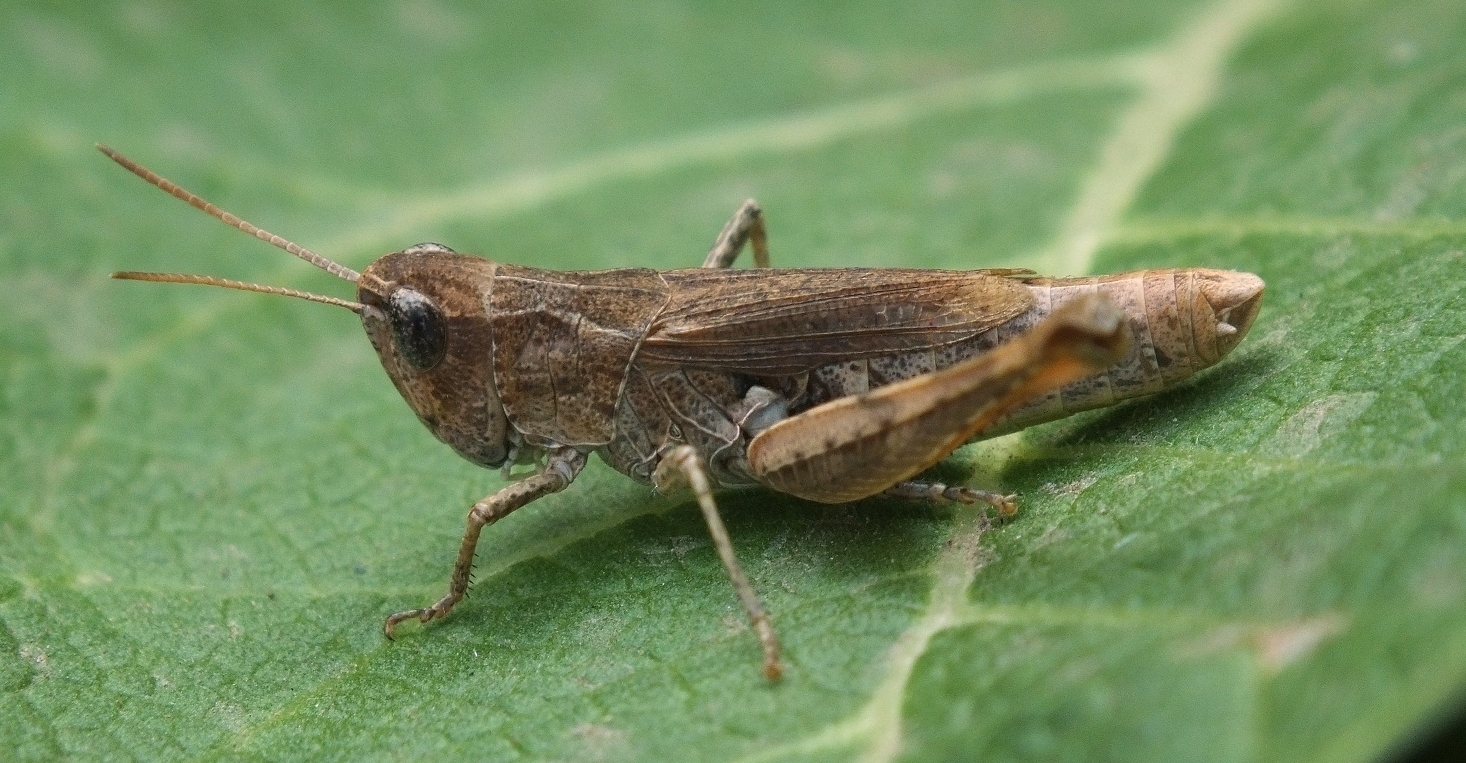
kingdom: Animalia
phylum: Arthropoda
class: Insecta
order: Orthoptera
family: Acrididae
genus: Chorthippus
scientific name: Chorthippus macrocerus
